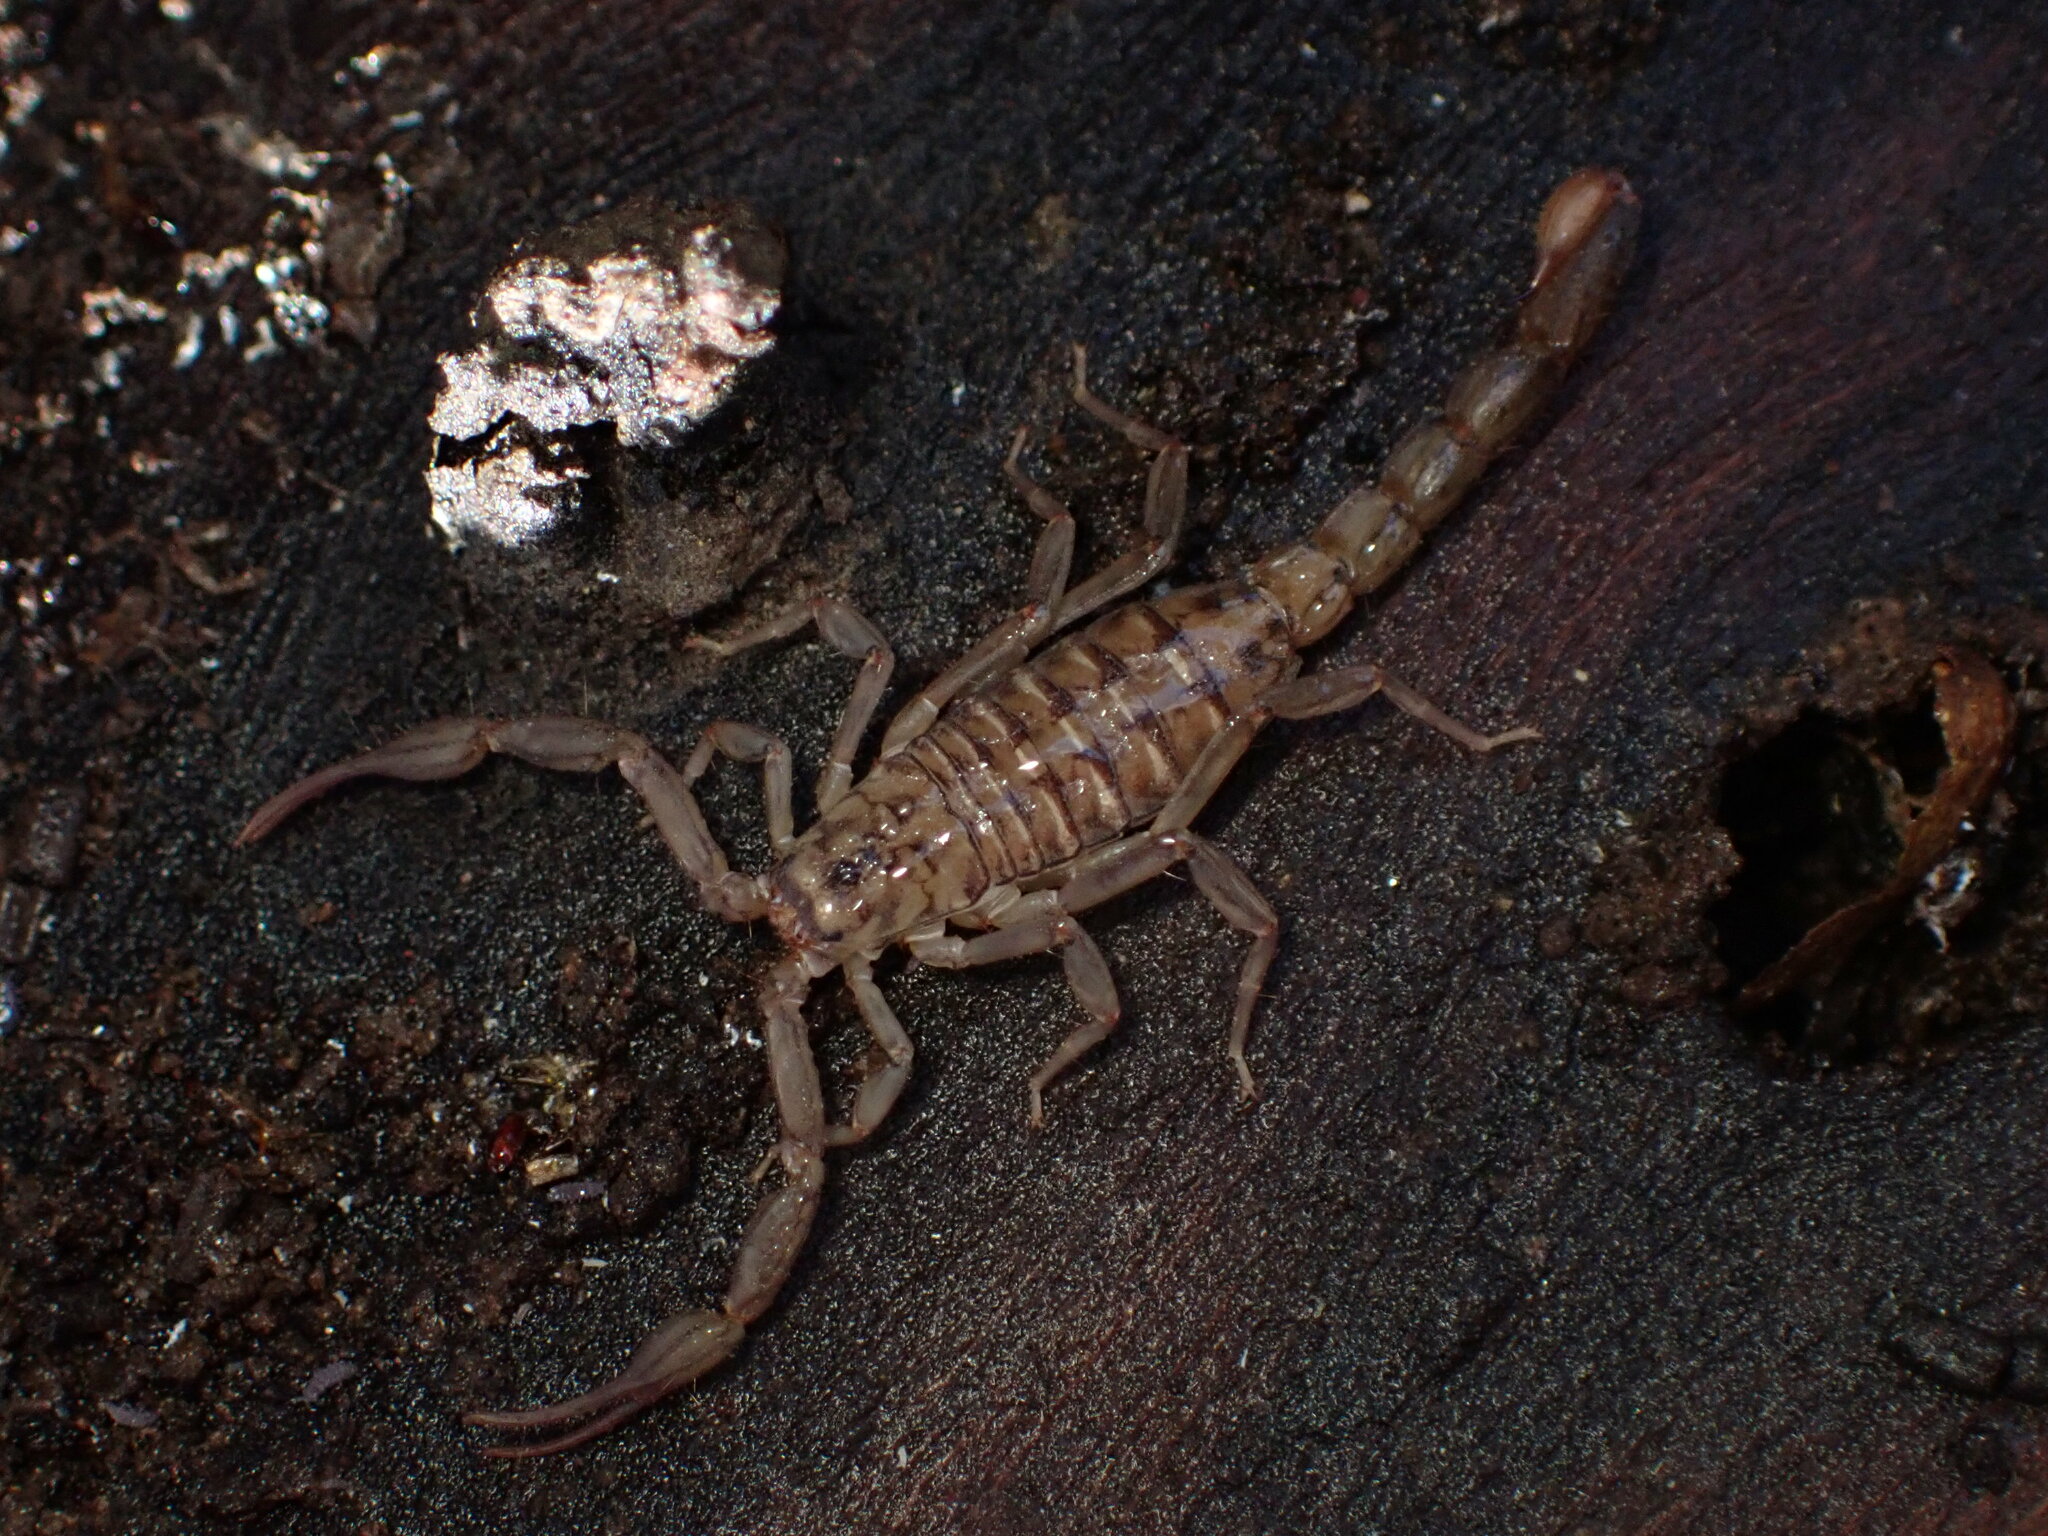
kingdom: Animalia
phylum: Arthropoda
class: Arachnida
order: Scorpiones
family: Vaejovidae
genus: Serradigitus
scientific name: Serradigitus gertschi
